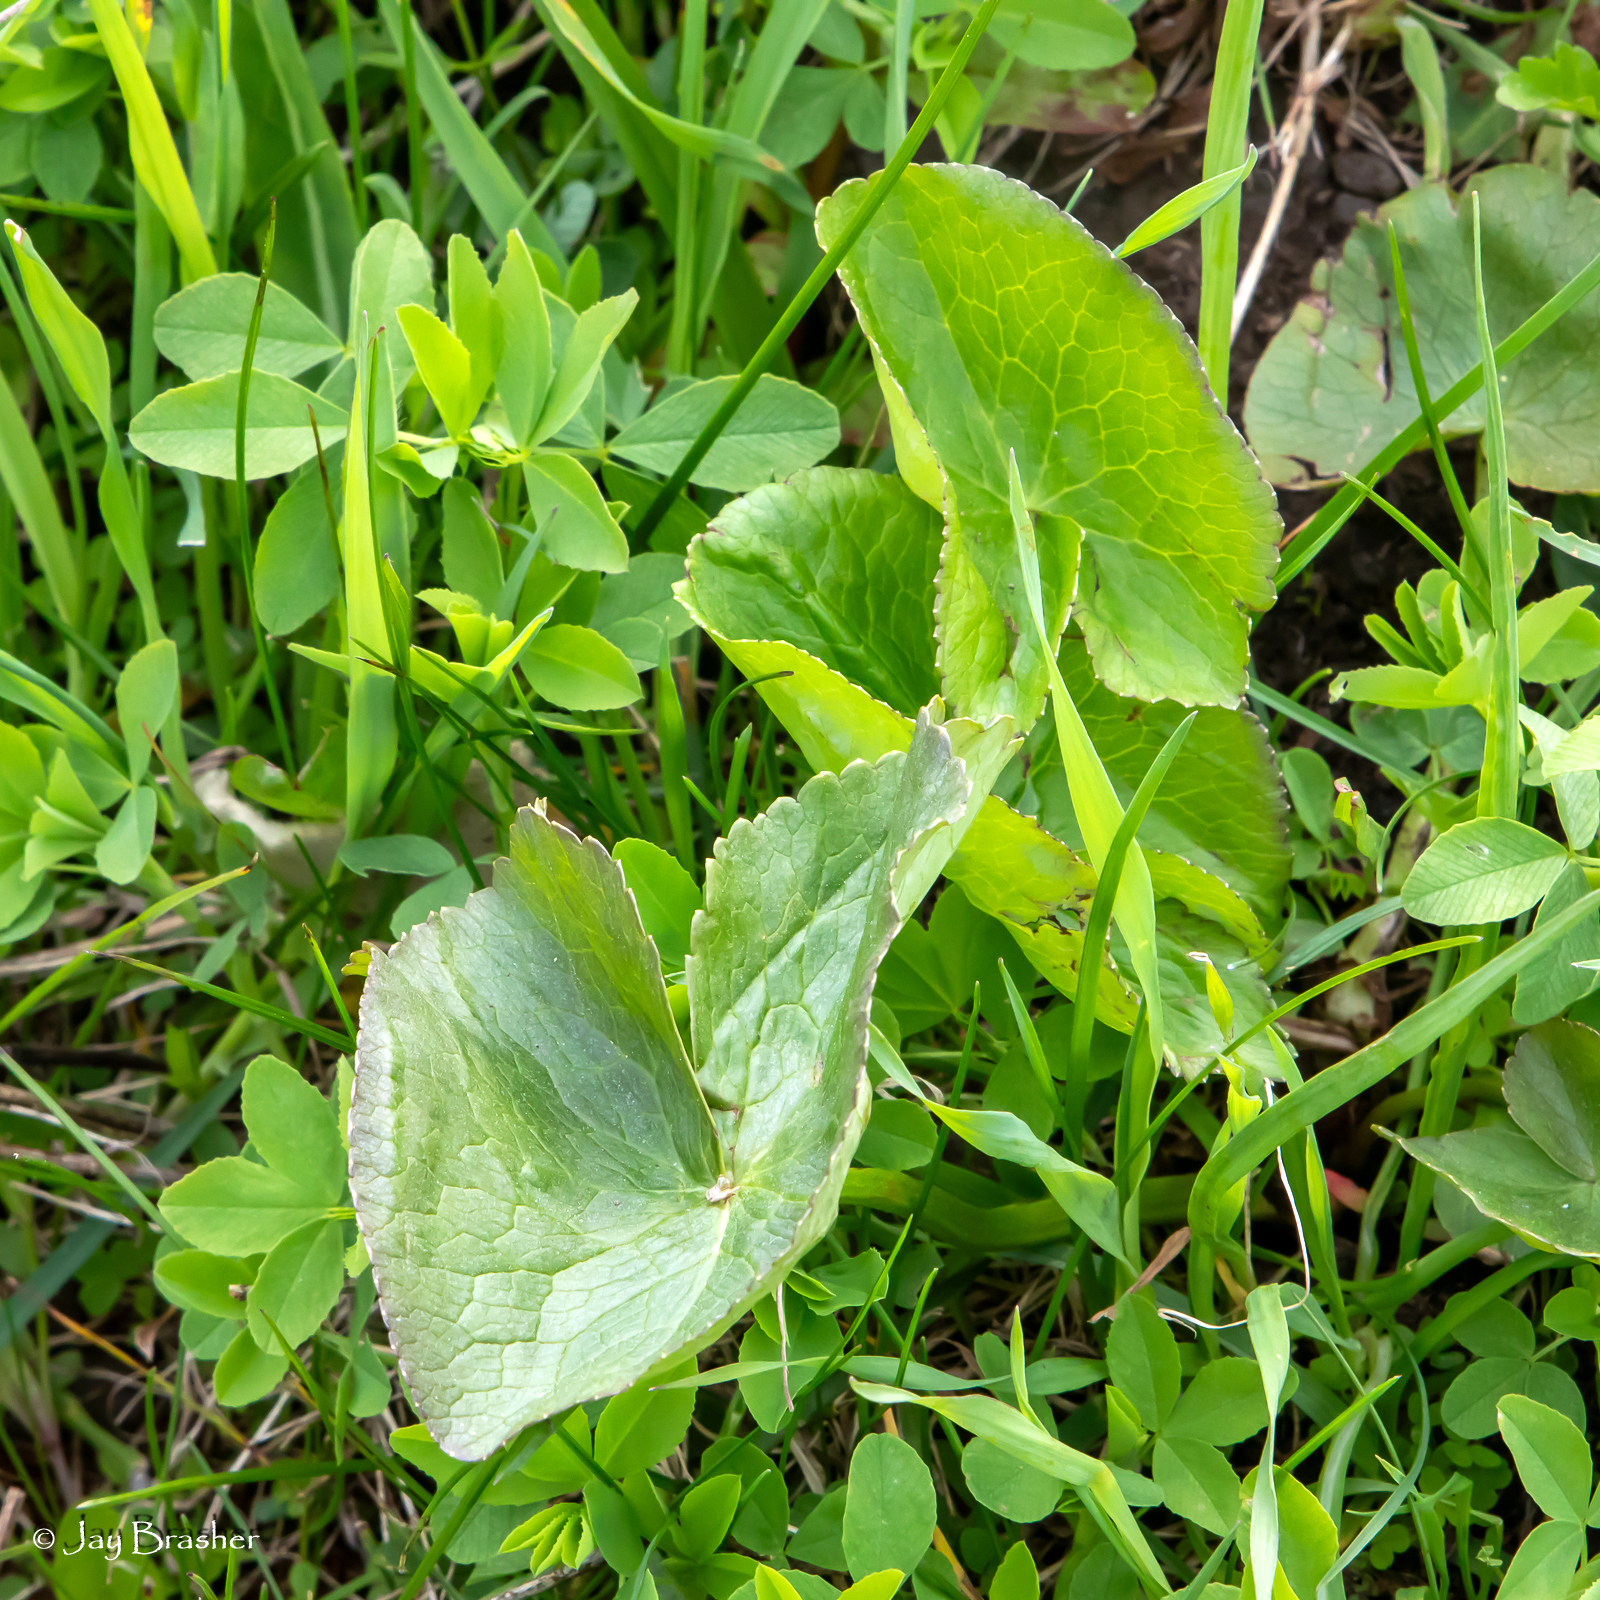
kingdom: Plantae
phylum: Tracheophyta
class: Magnoliopsida
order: Ranunculales
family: Ranunculaceae
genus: Caltha
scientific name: Caltha palustris
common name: Marsh marigold
